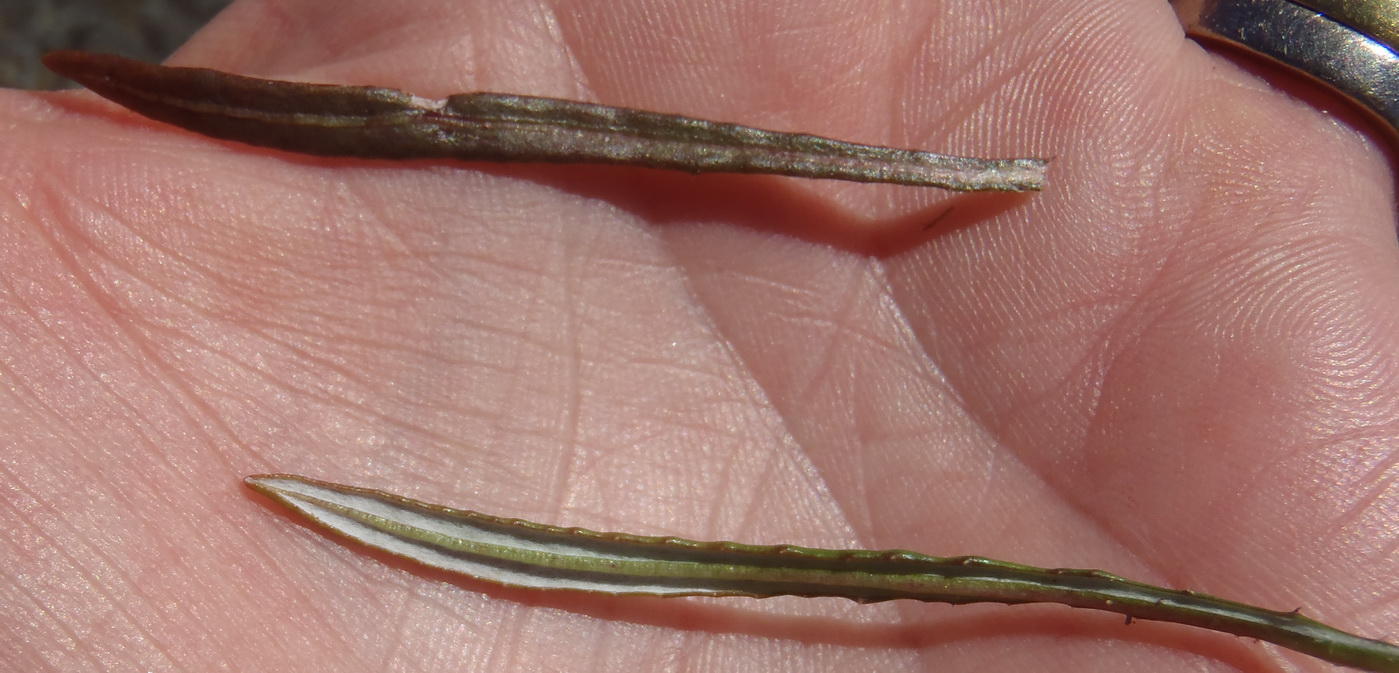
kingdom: Plantae
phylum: Tracheophyta
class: Magnoliopsida
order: Asterales
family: Asteraceae
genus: Gazania
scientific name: Gazania krebsiana
